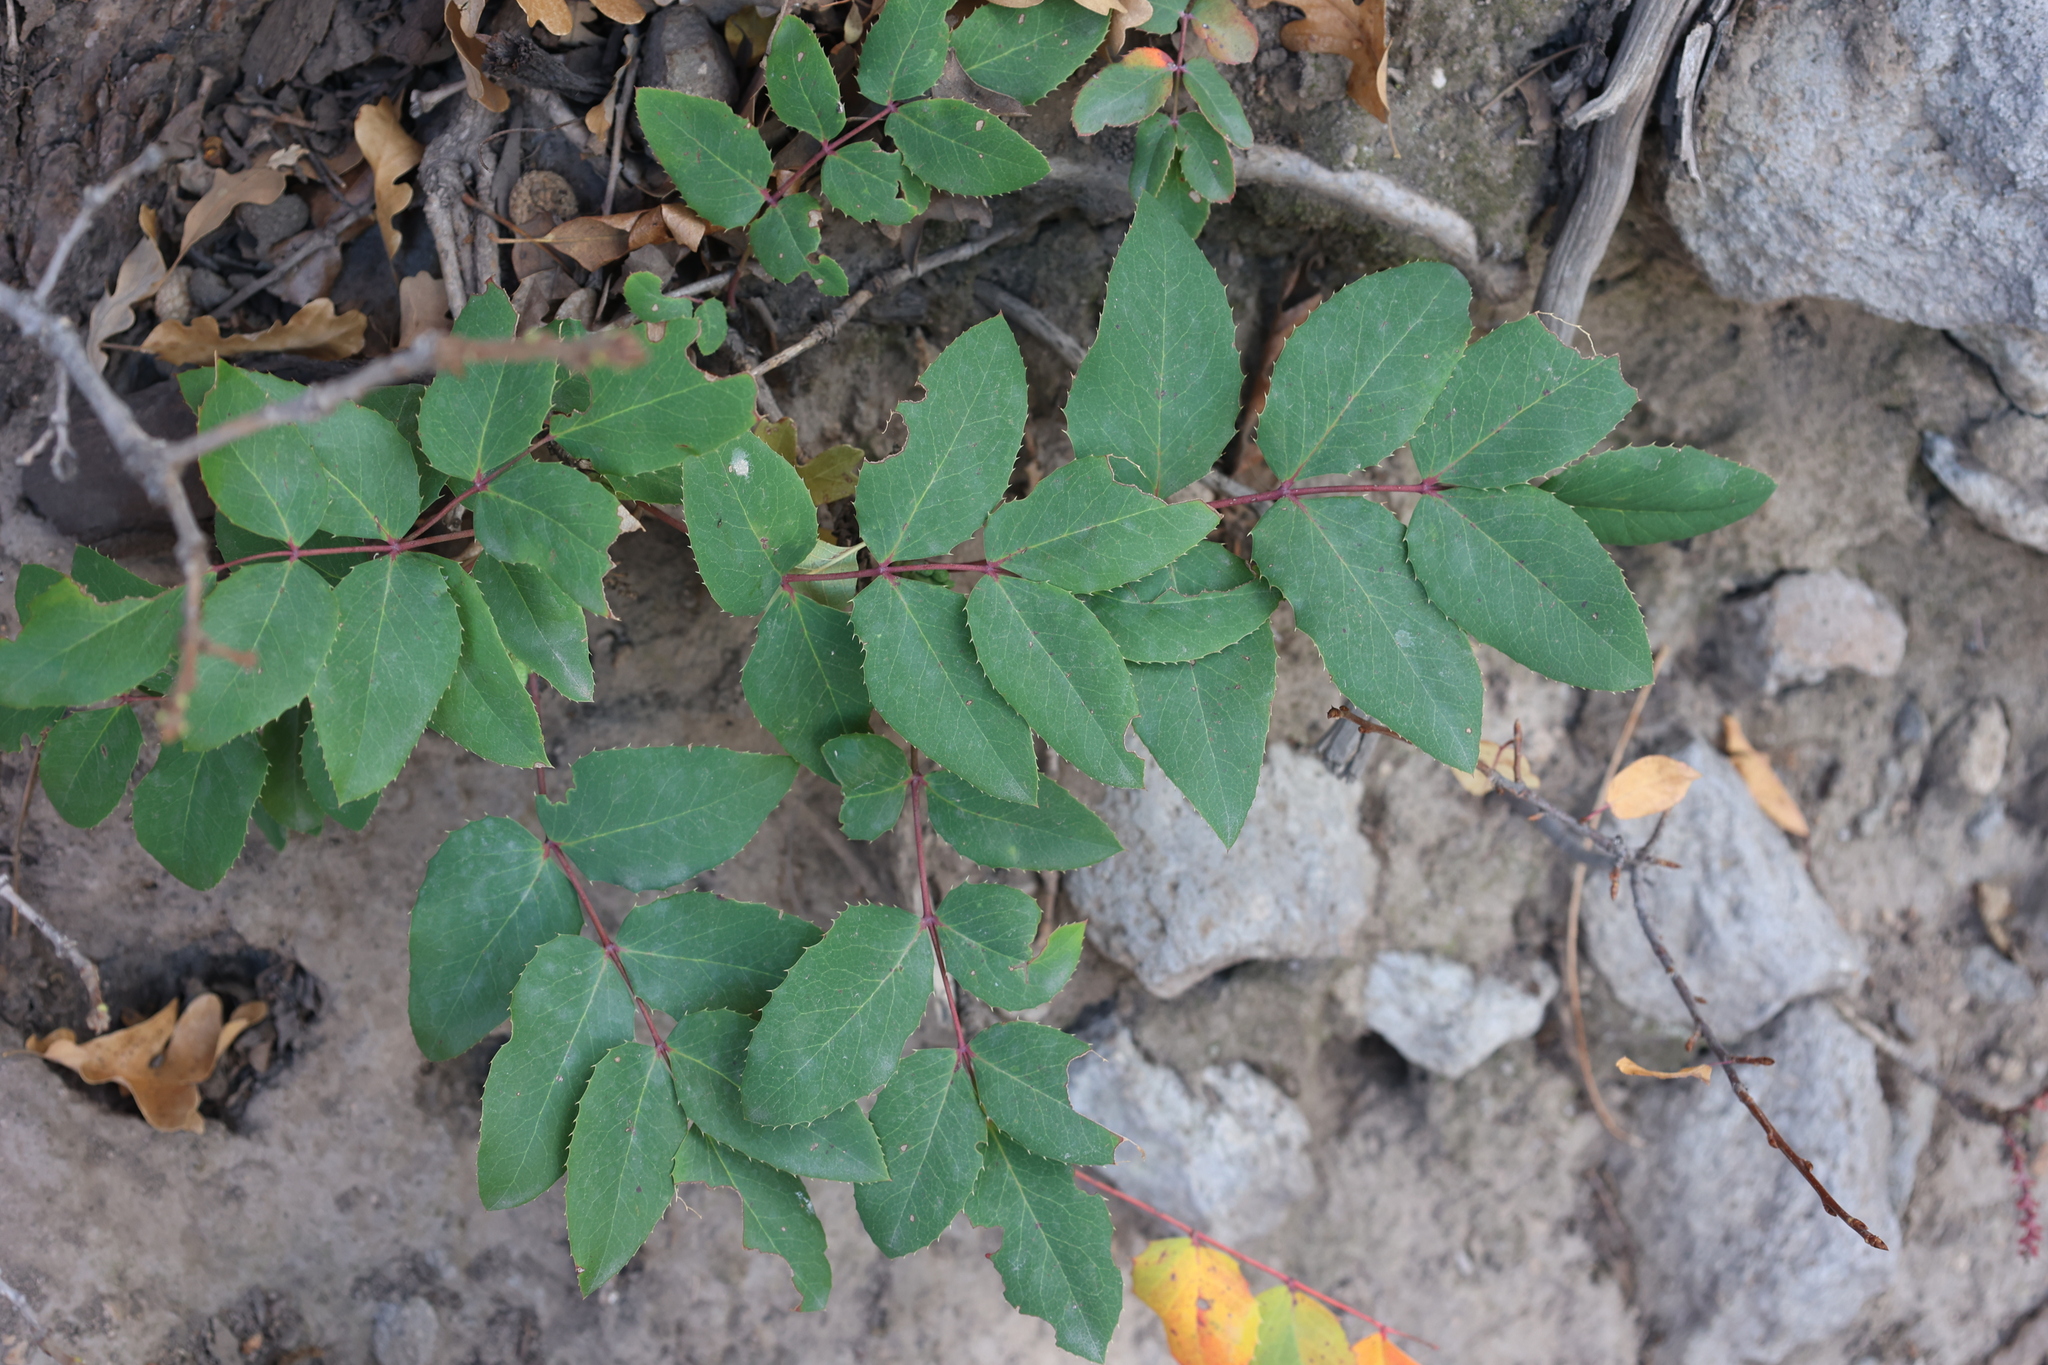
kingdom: Plantae
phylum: Tracheophyta
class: Magnoliopsida
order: Ranunculales
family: Berberidaceae
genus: Mahonia
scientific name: Mahonia repens
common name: Creeping oregon-grape
